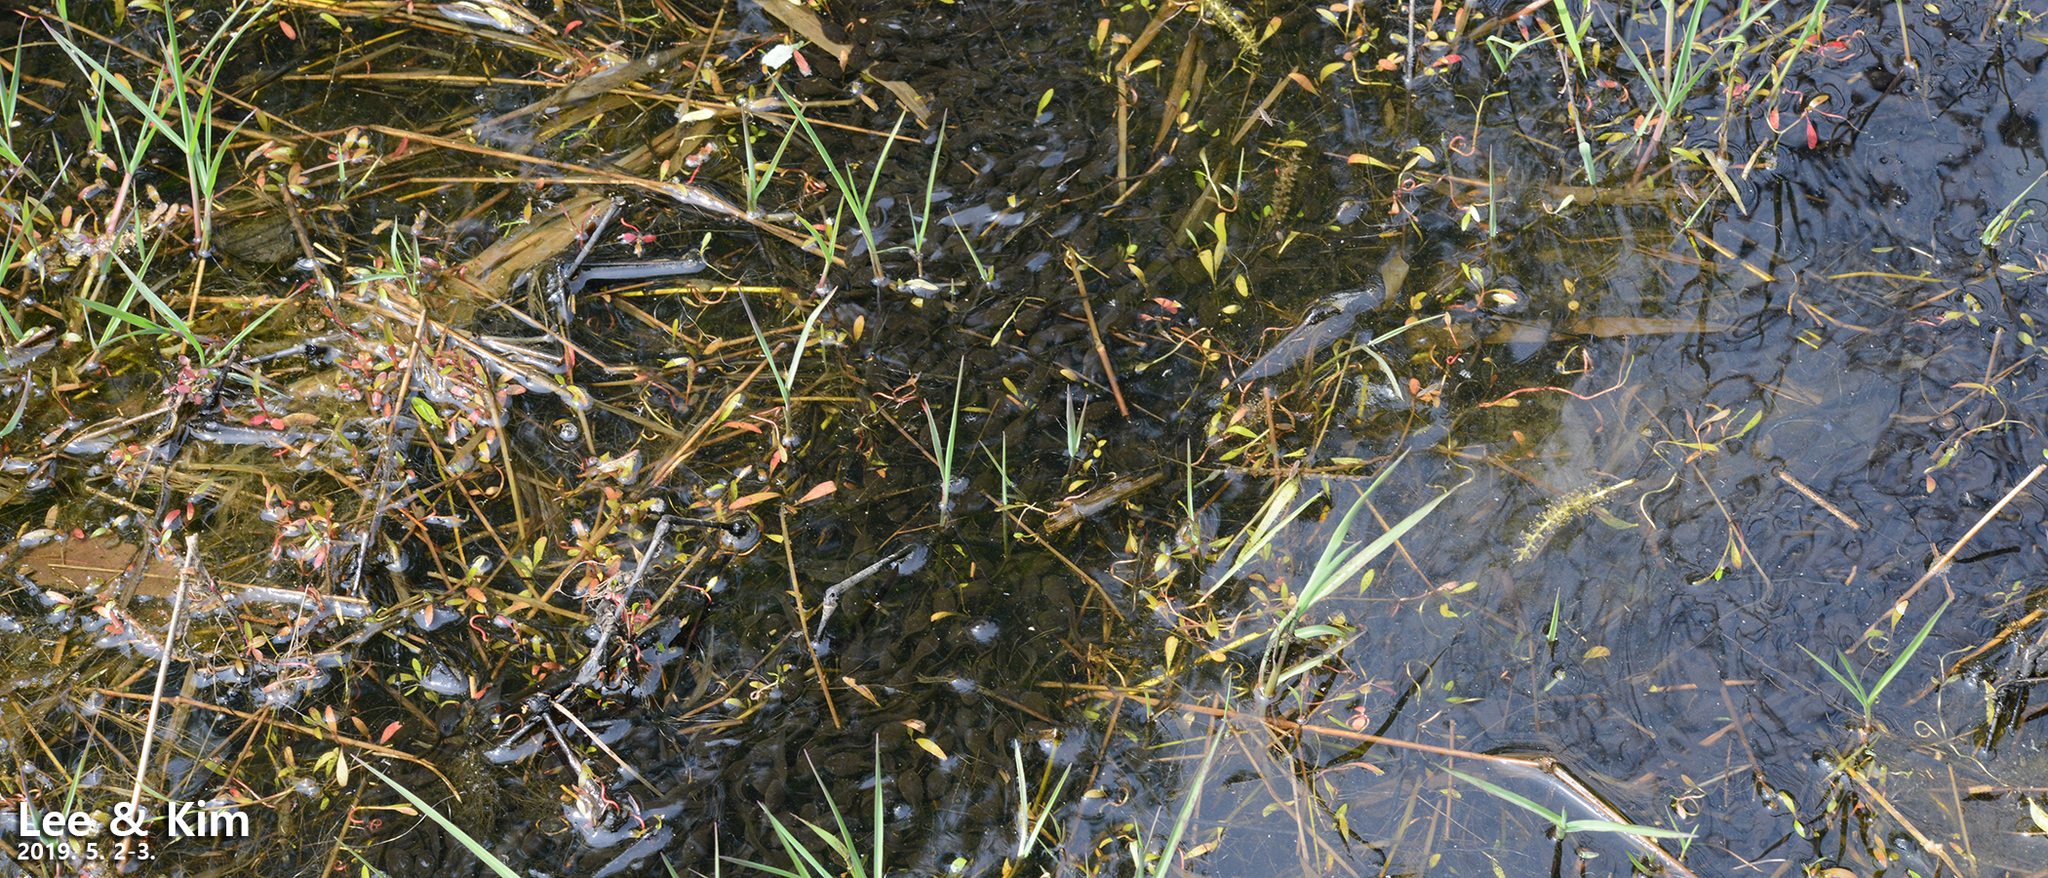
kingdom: Animalia
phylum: Chordata
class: Amphibia
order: Anura
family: Bufonidae
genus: Bufo
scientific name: Bufo gargarizans
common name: Asiatic toad
